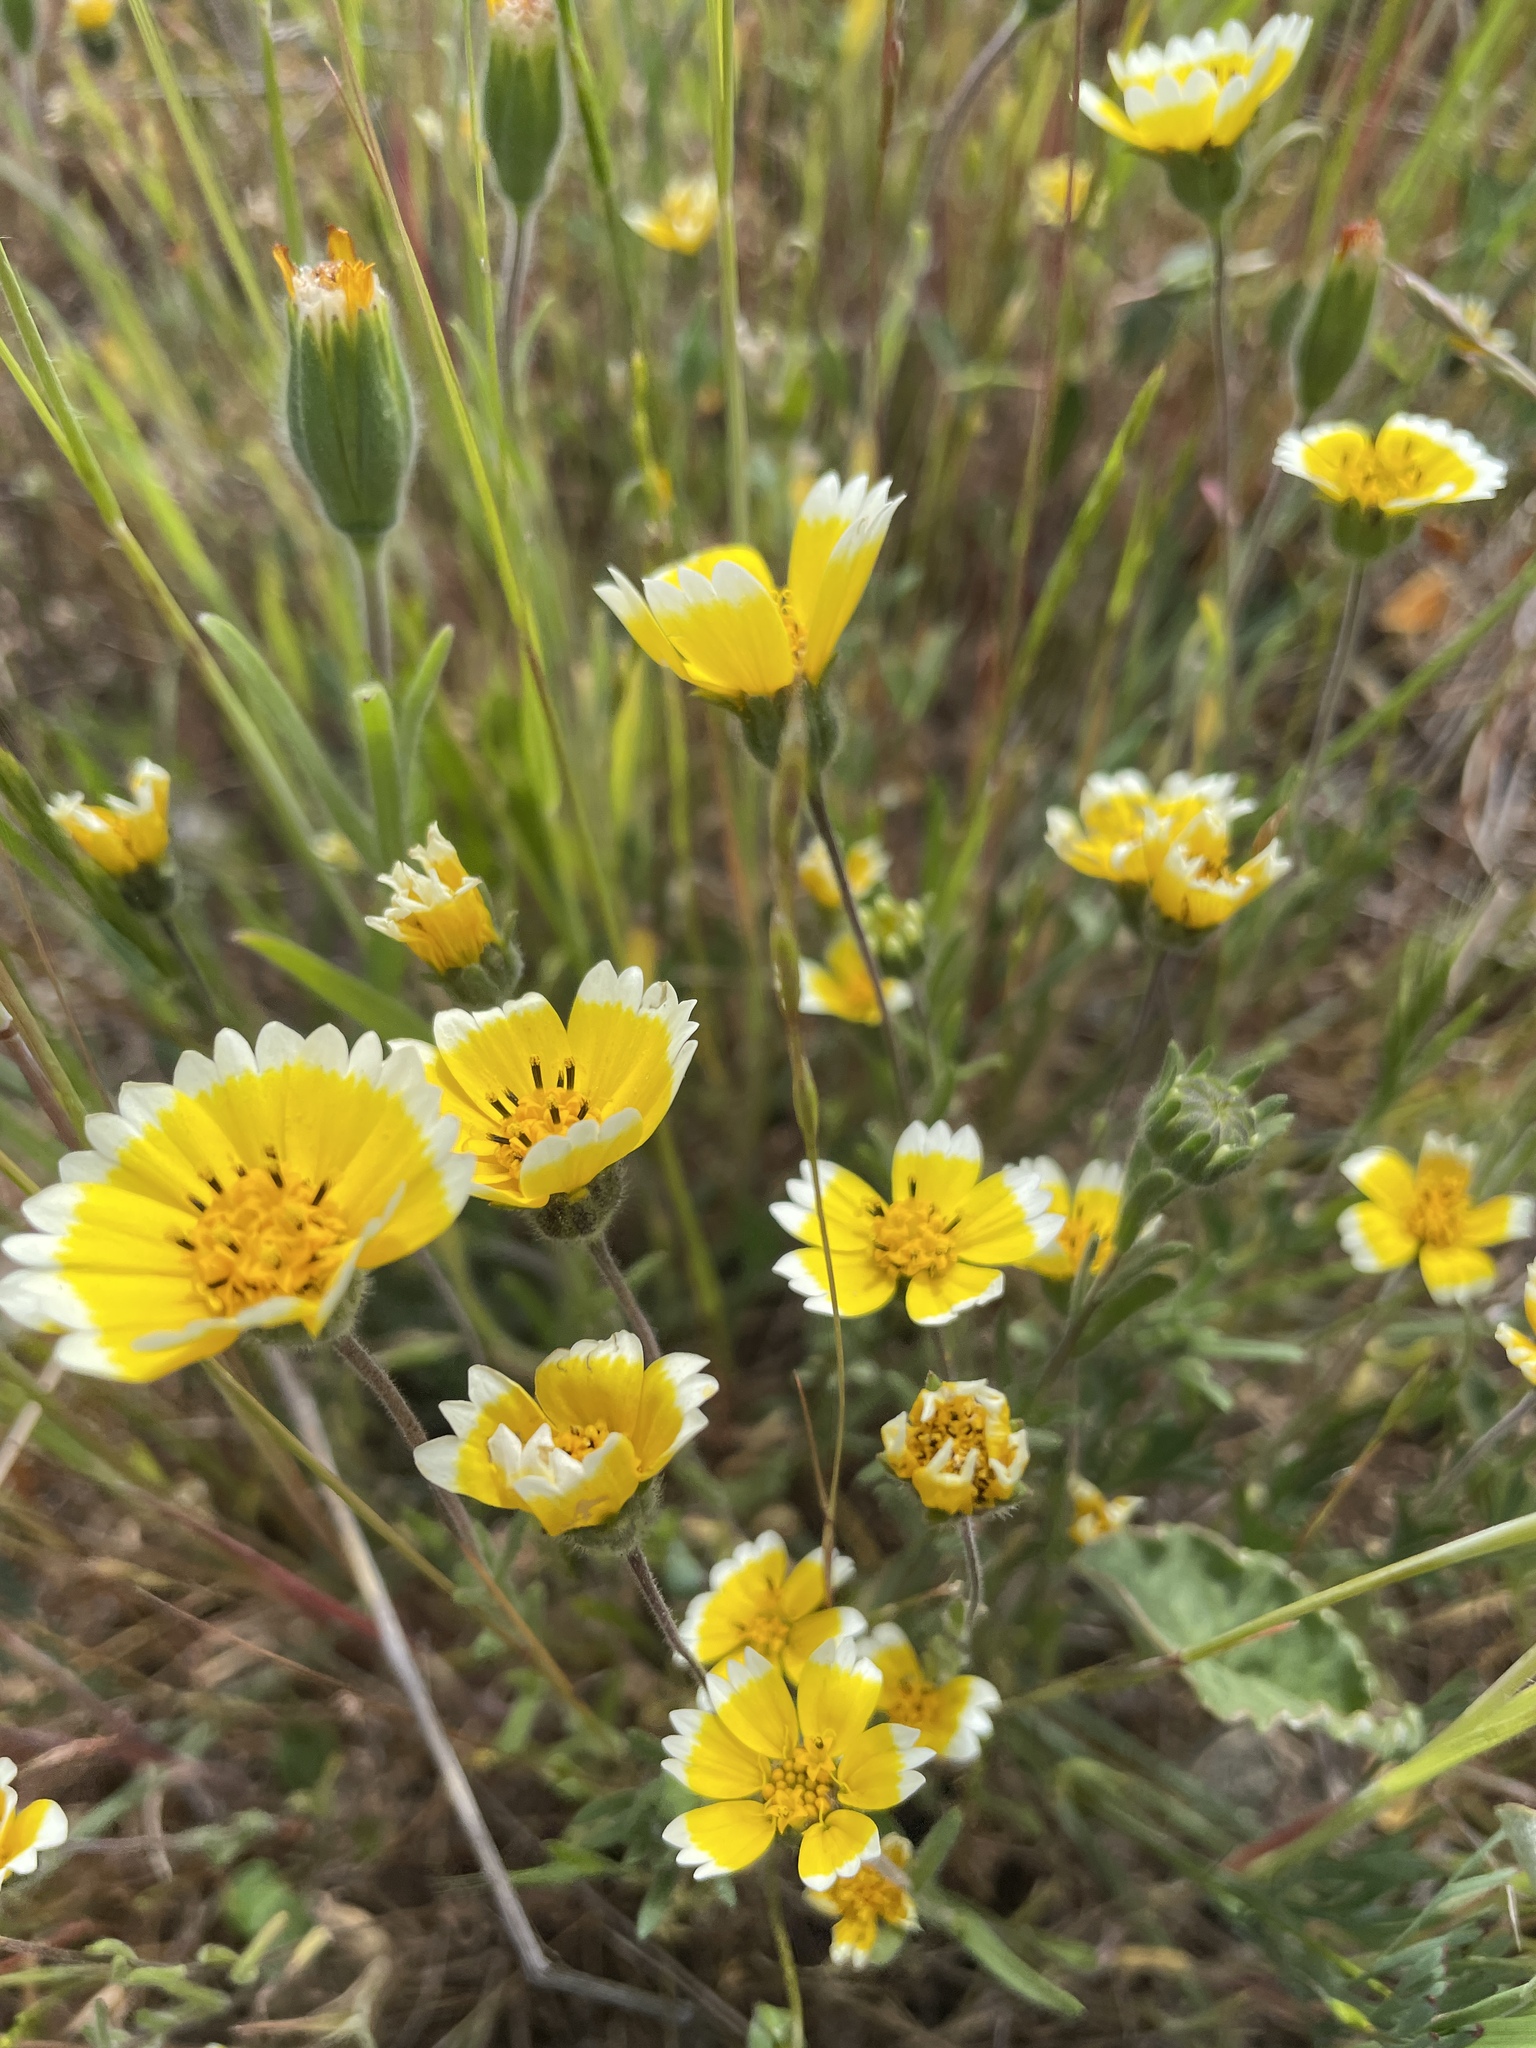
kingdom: Plantae
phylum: Tracheophyta
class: Magnoliopsida
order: Asterales
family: Asteraceae
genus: Layia
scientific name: Layia platyglossa
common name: Tidy-tips
